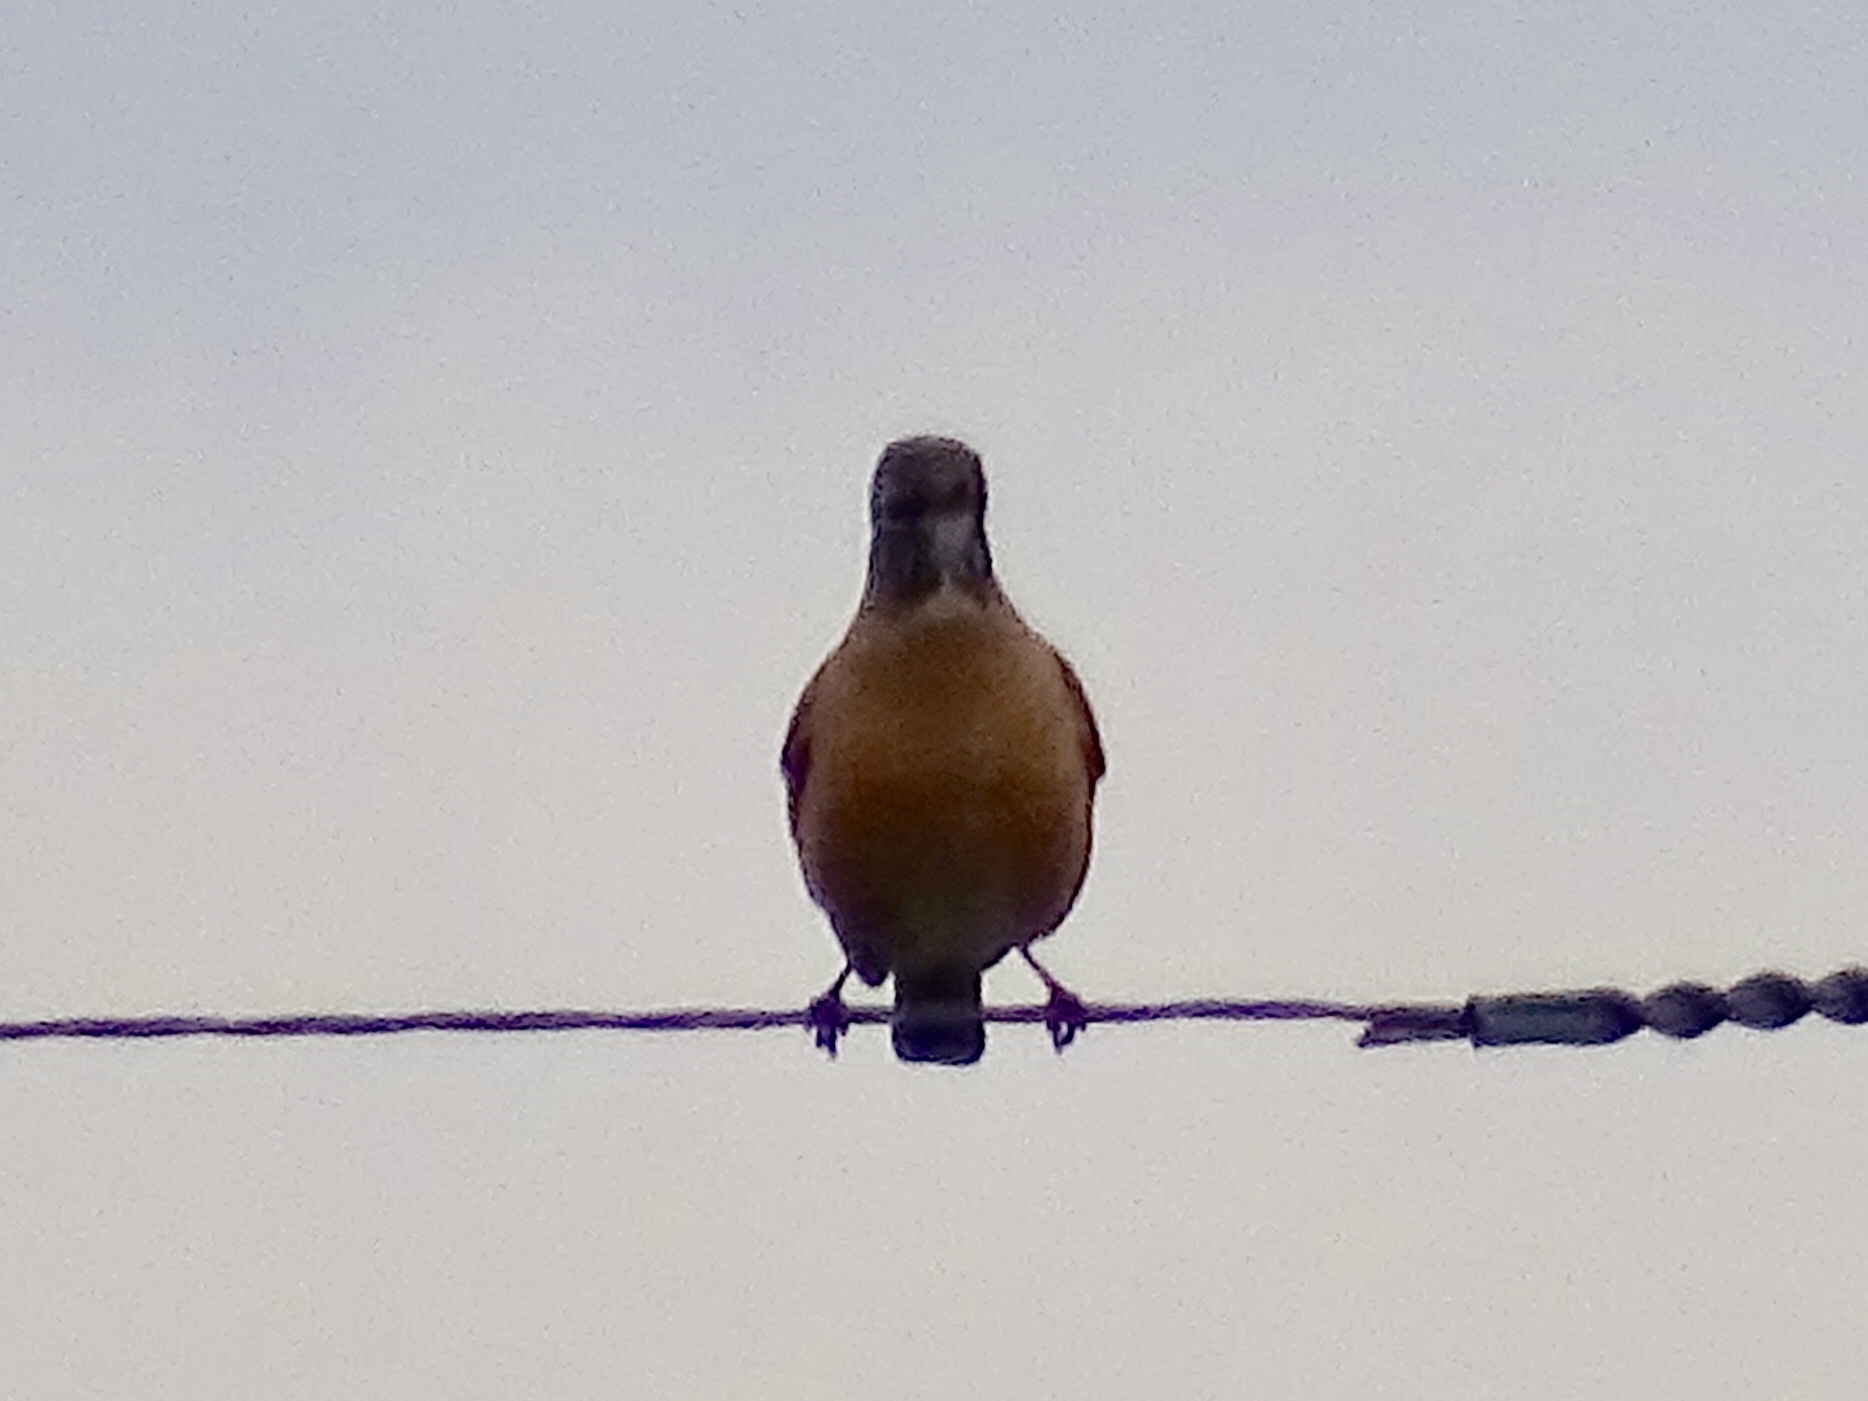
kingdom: Animalia
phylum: Chordata
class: Aves
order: Passeriformes
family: Turdidae
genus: Turdus
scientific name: Turdus migratorius
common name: American robin
